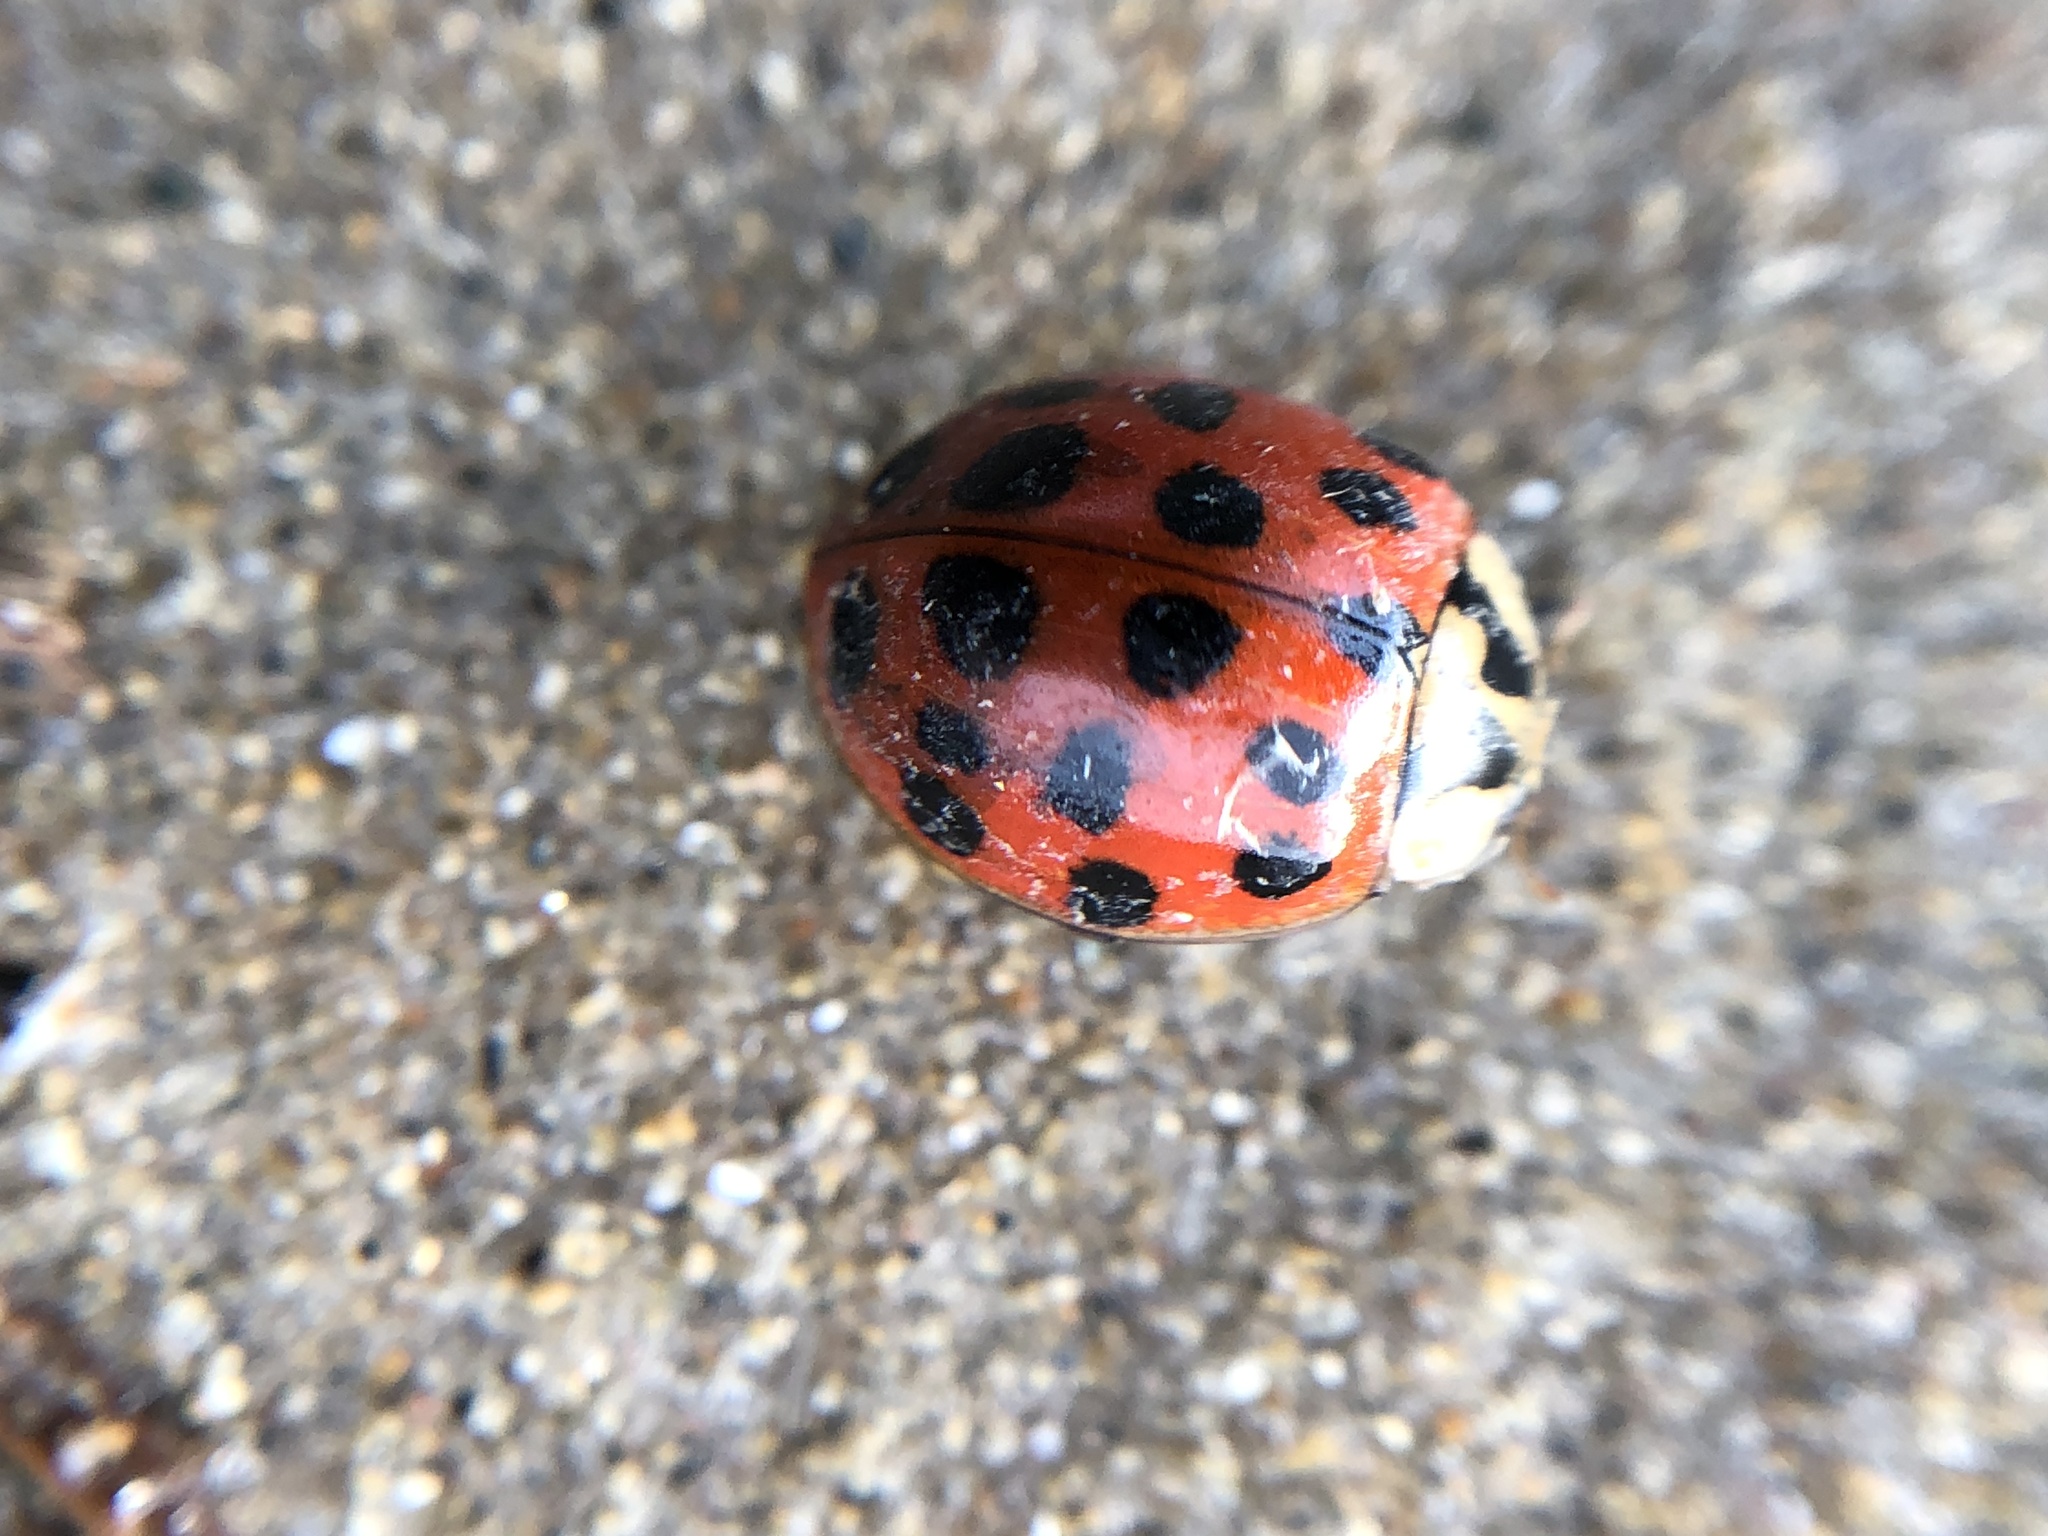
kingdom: Animalia
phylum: Arthropoda
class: Insecta
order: Coleoptera
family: Coccinellidae
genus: Harmonia
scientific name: Harmonia axyridis
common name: Harlequin ladybird
